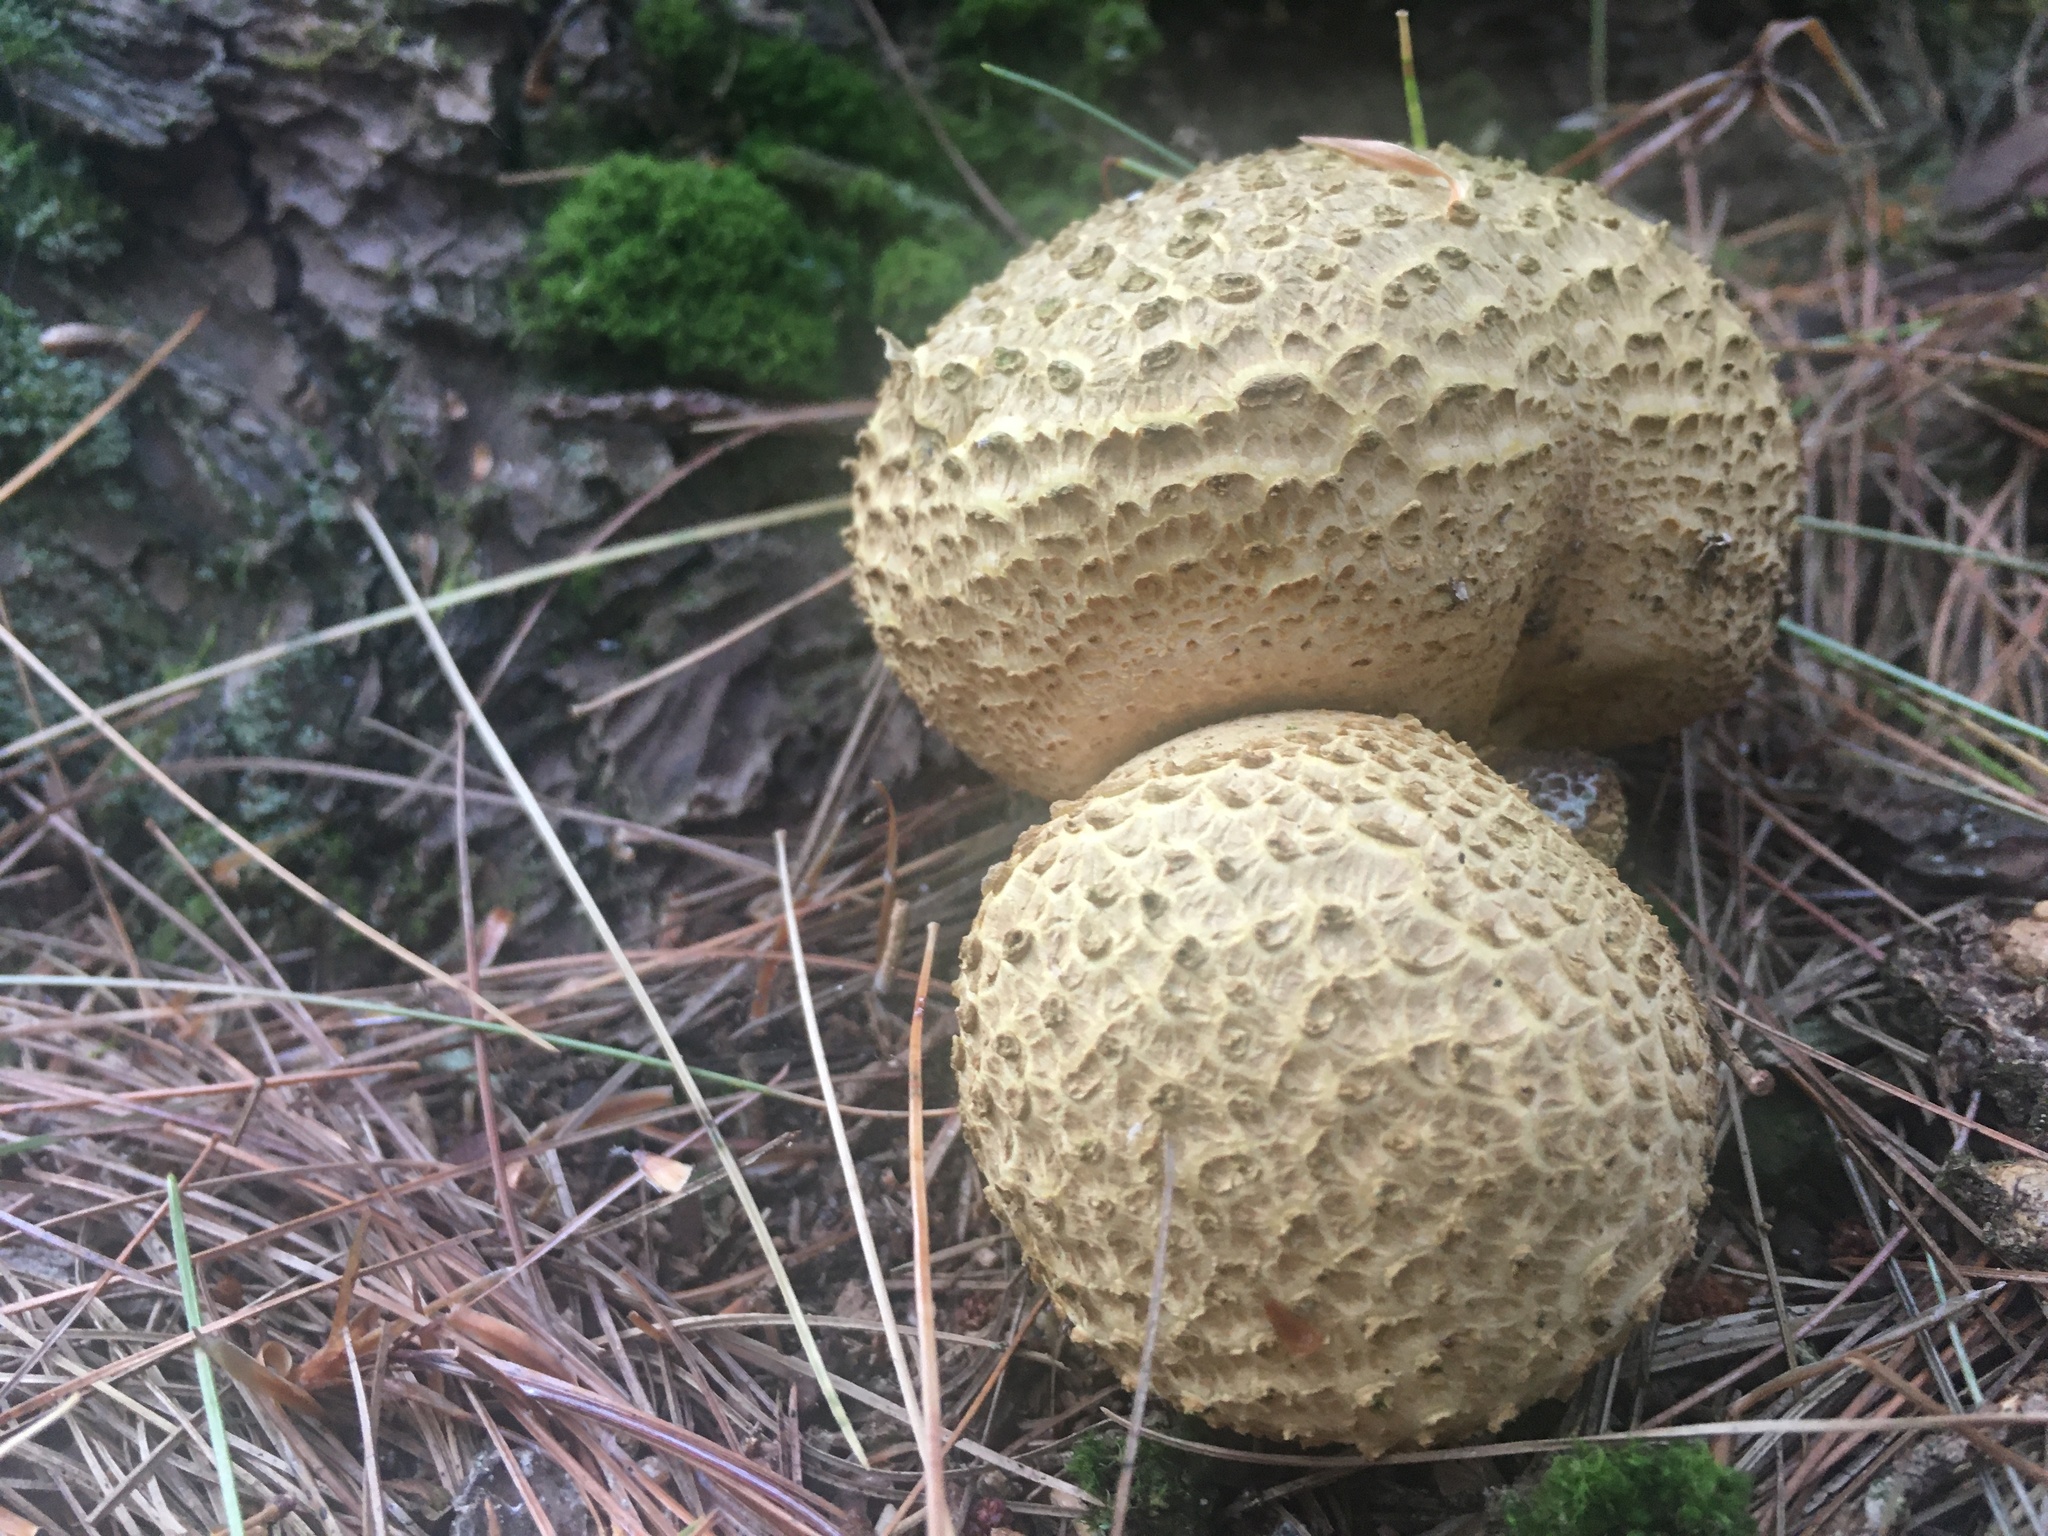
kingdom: Fungi
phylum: Basidiomycota
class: Agaricomycetes
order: Boletales
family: Sclerodermataceae
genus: Scleroderma
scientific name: Scleroderma citrinum
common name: Common earthball
